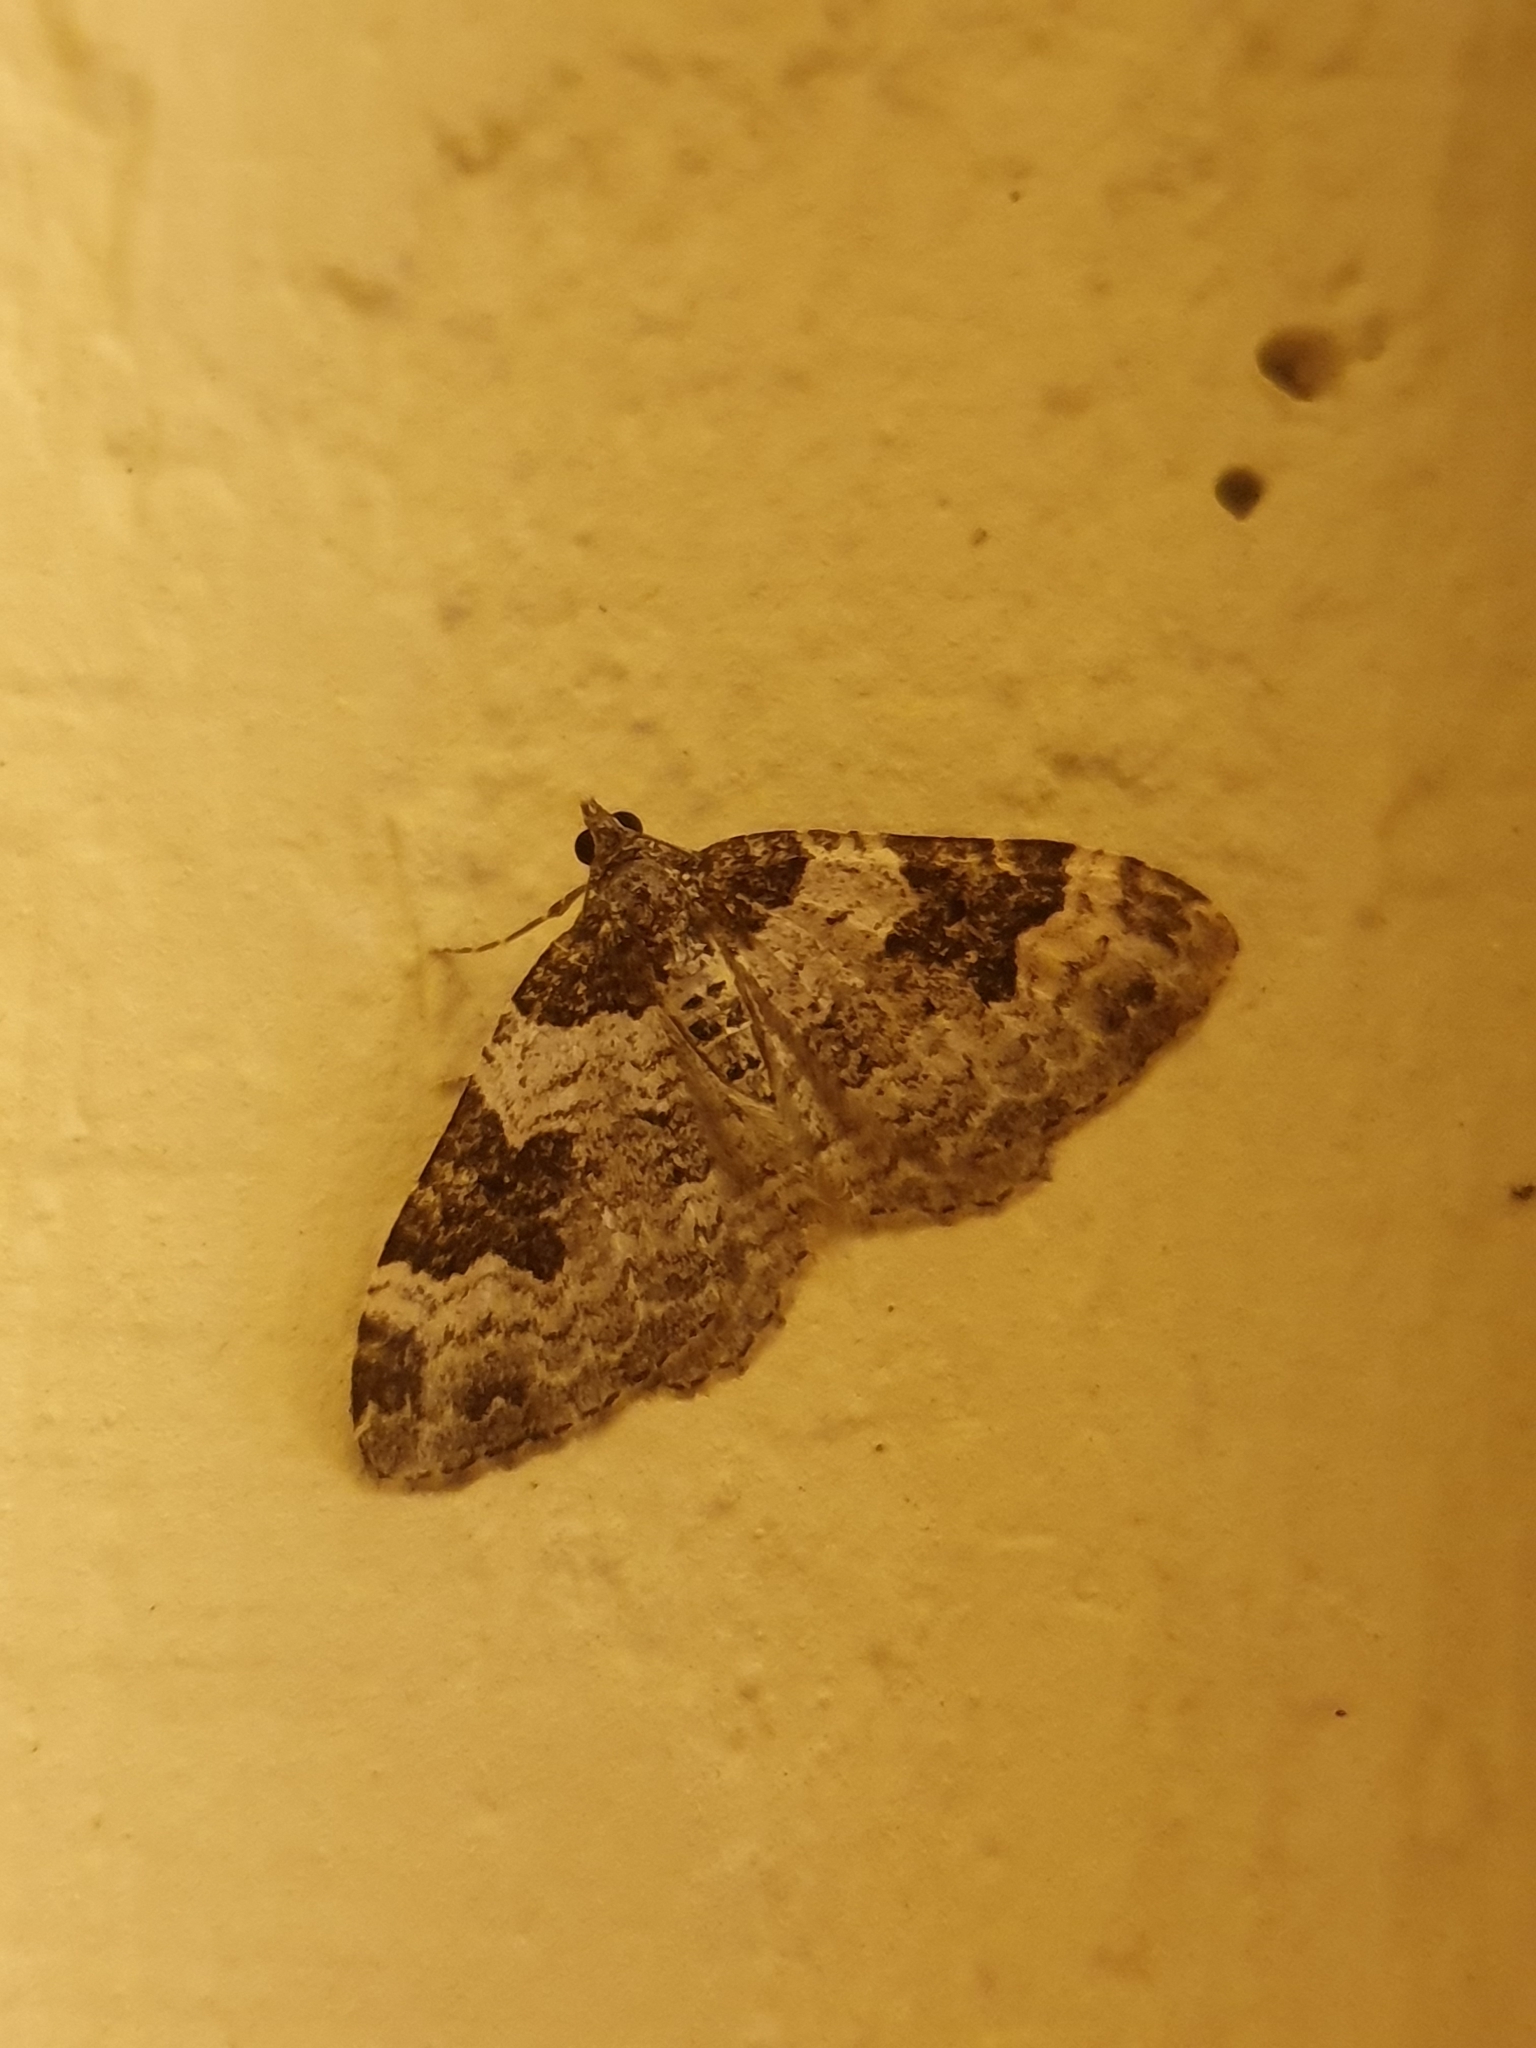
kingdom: Animalia
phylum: Arthropoda
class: Insecta
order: Lepidoptera
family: Geometridae
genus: Xanthorhoe
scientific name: Xanthorhoe fluctuata
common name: Garden carpet
